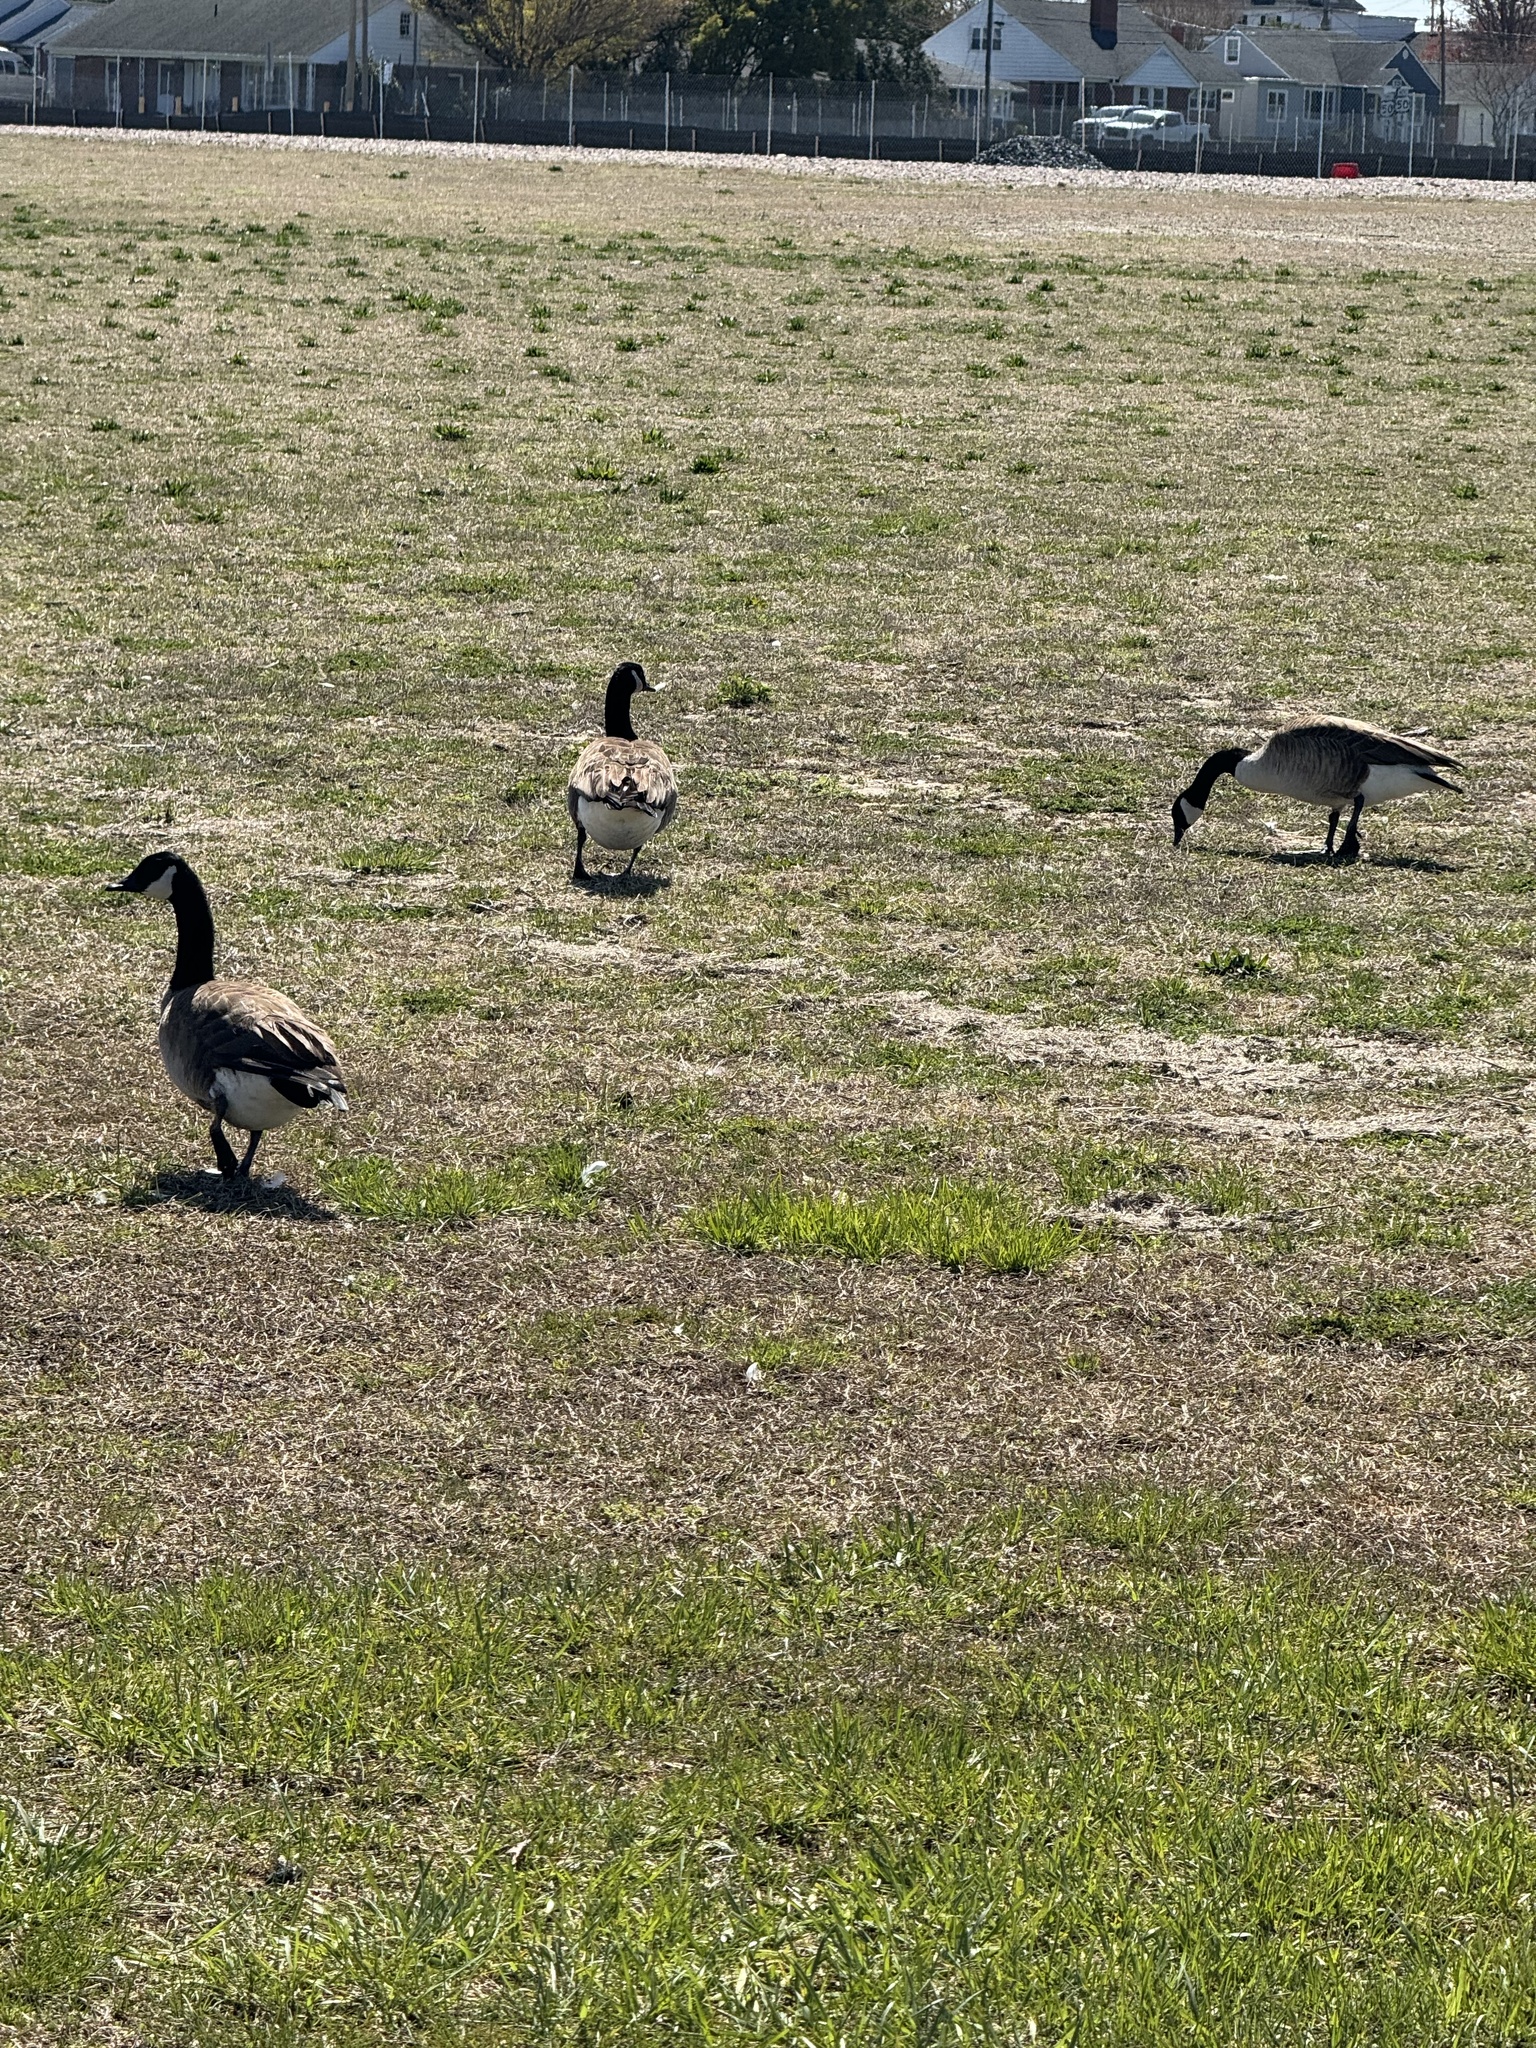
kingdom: Animalia
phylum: Chordata
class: Aves
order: Anseriformes
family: Anatidae
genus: Branta
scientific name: Branta canadensis
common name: Canada goose
